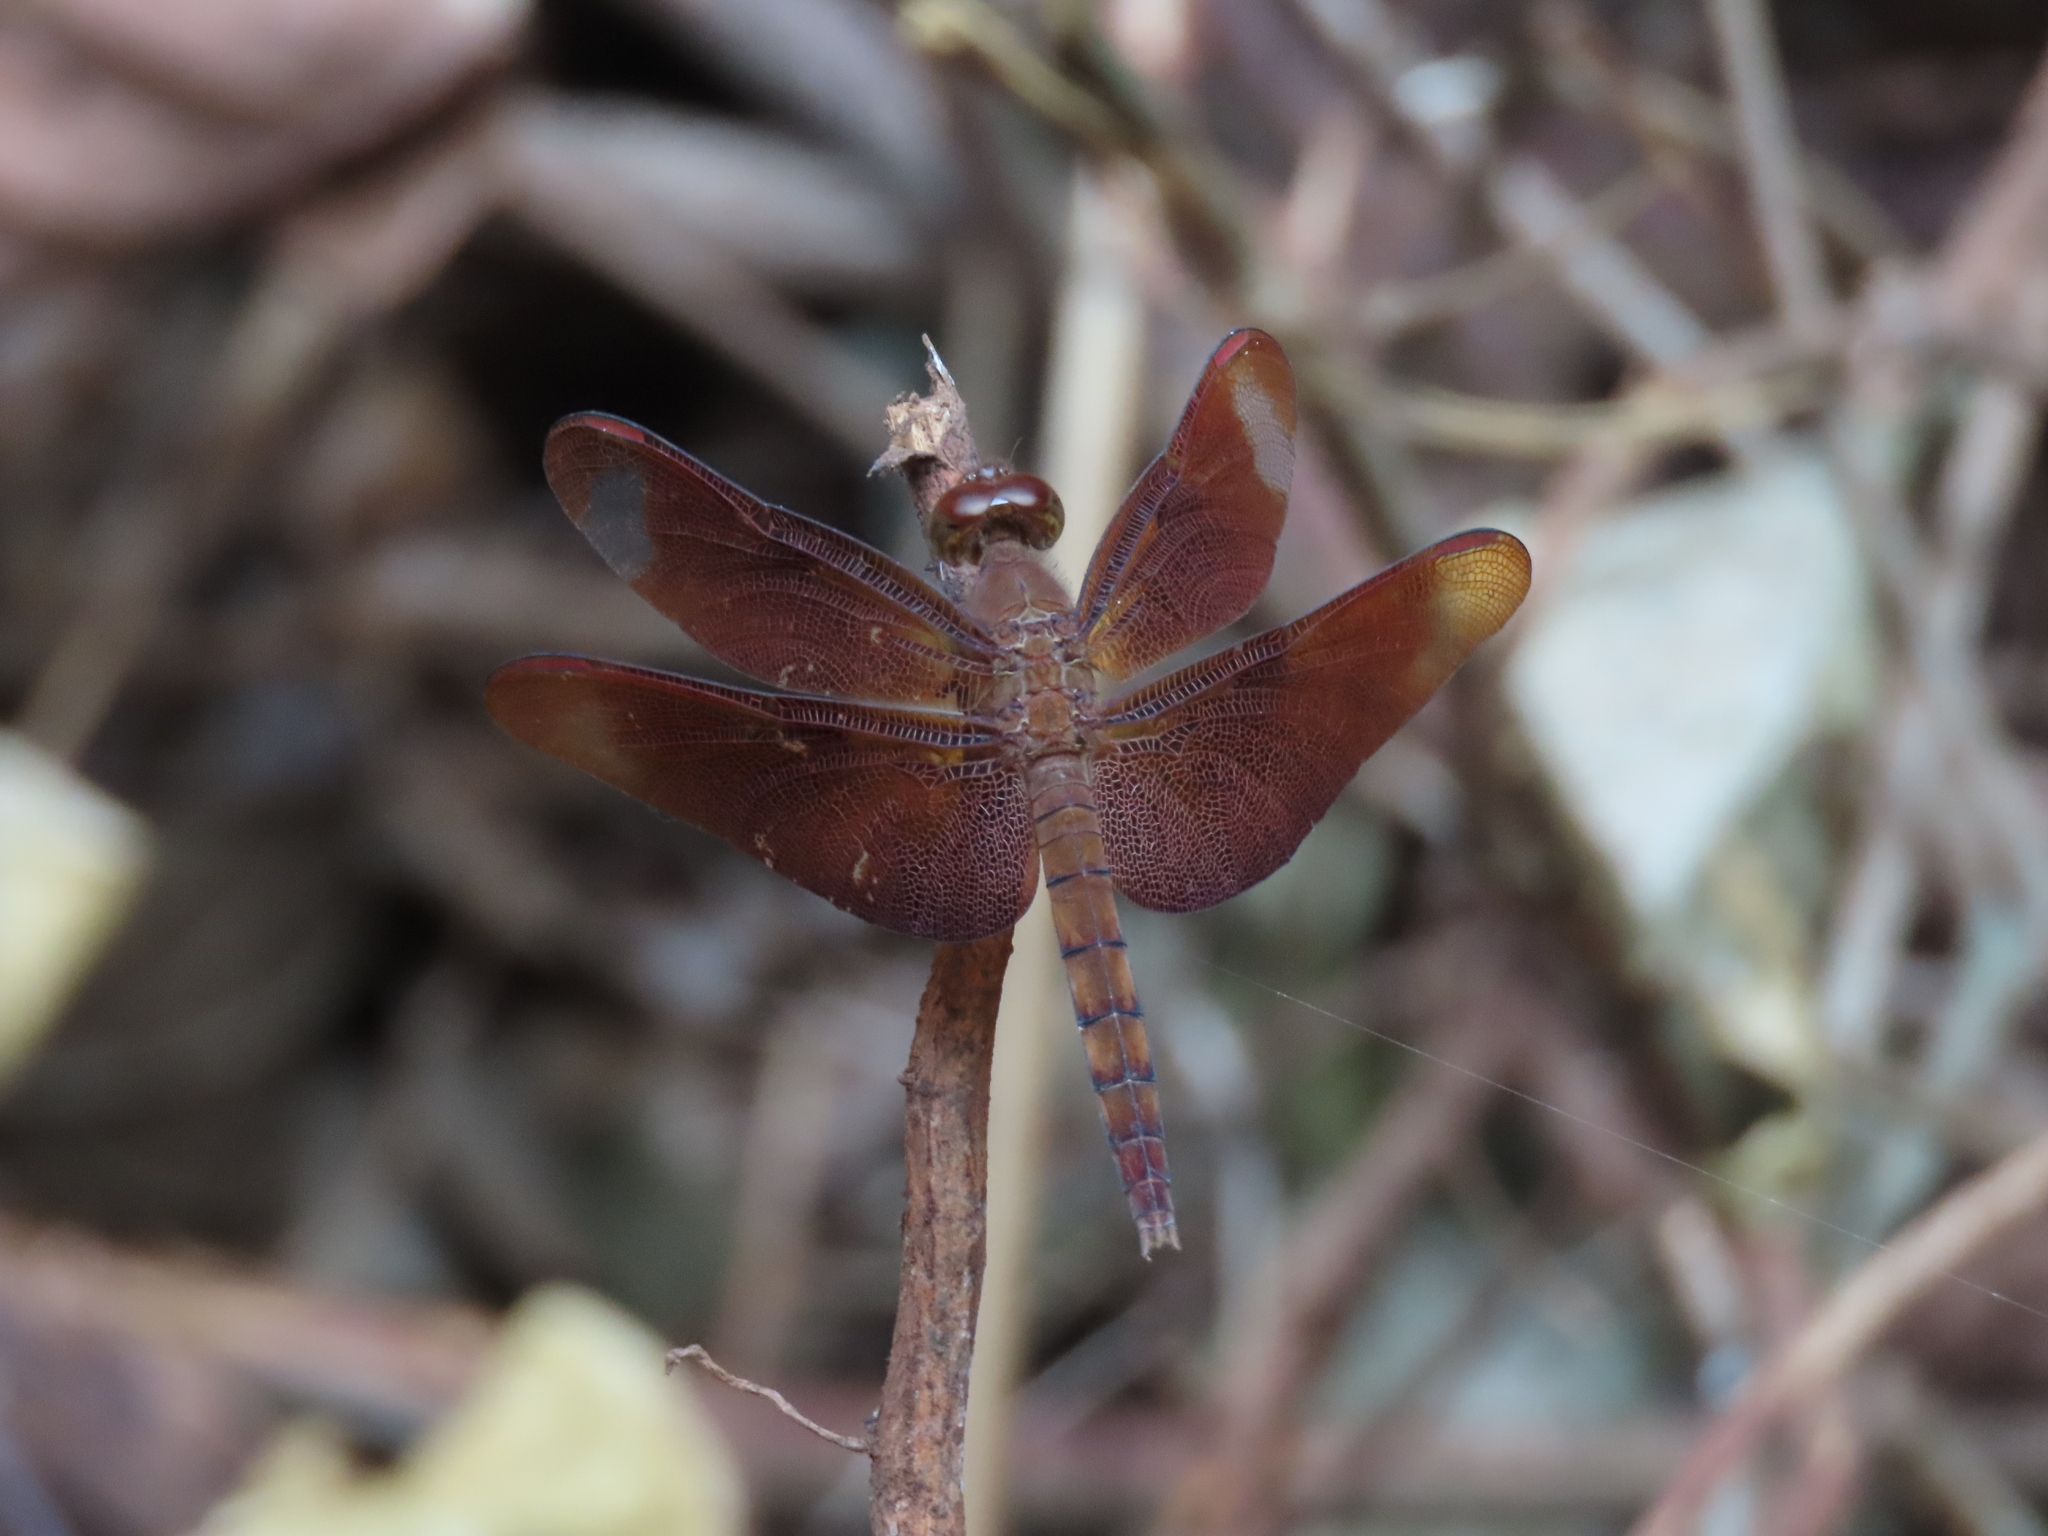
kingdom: Animalia
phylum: Arthropoda
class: Insecta
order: Odonata
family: Libellulidae
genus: Neurothemis
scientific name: Neurothemis fulvia
